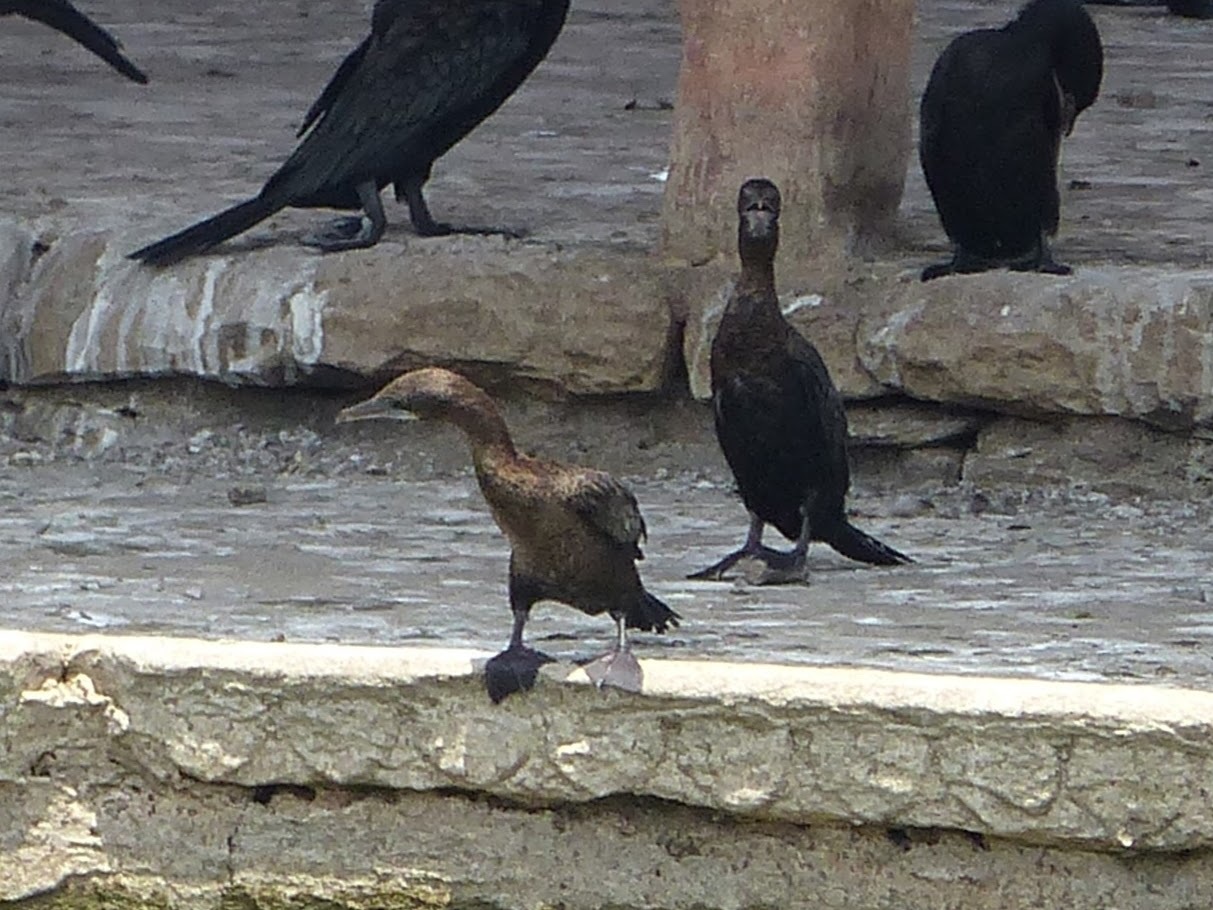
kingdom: Animalia
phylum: Chordata
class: Aves
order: Suliformes
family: Phalacrocoracidae
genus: Microcarbo
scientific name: Microcarbo niger
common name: Little cormorant
